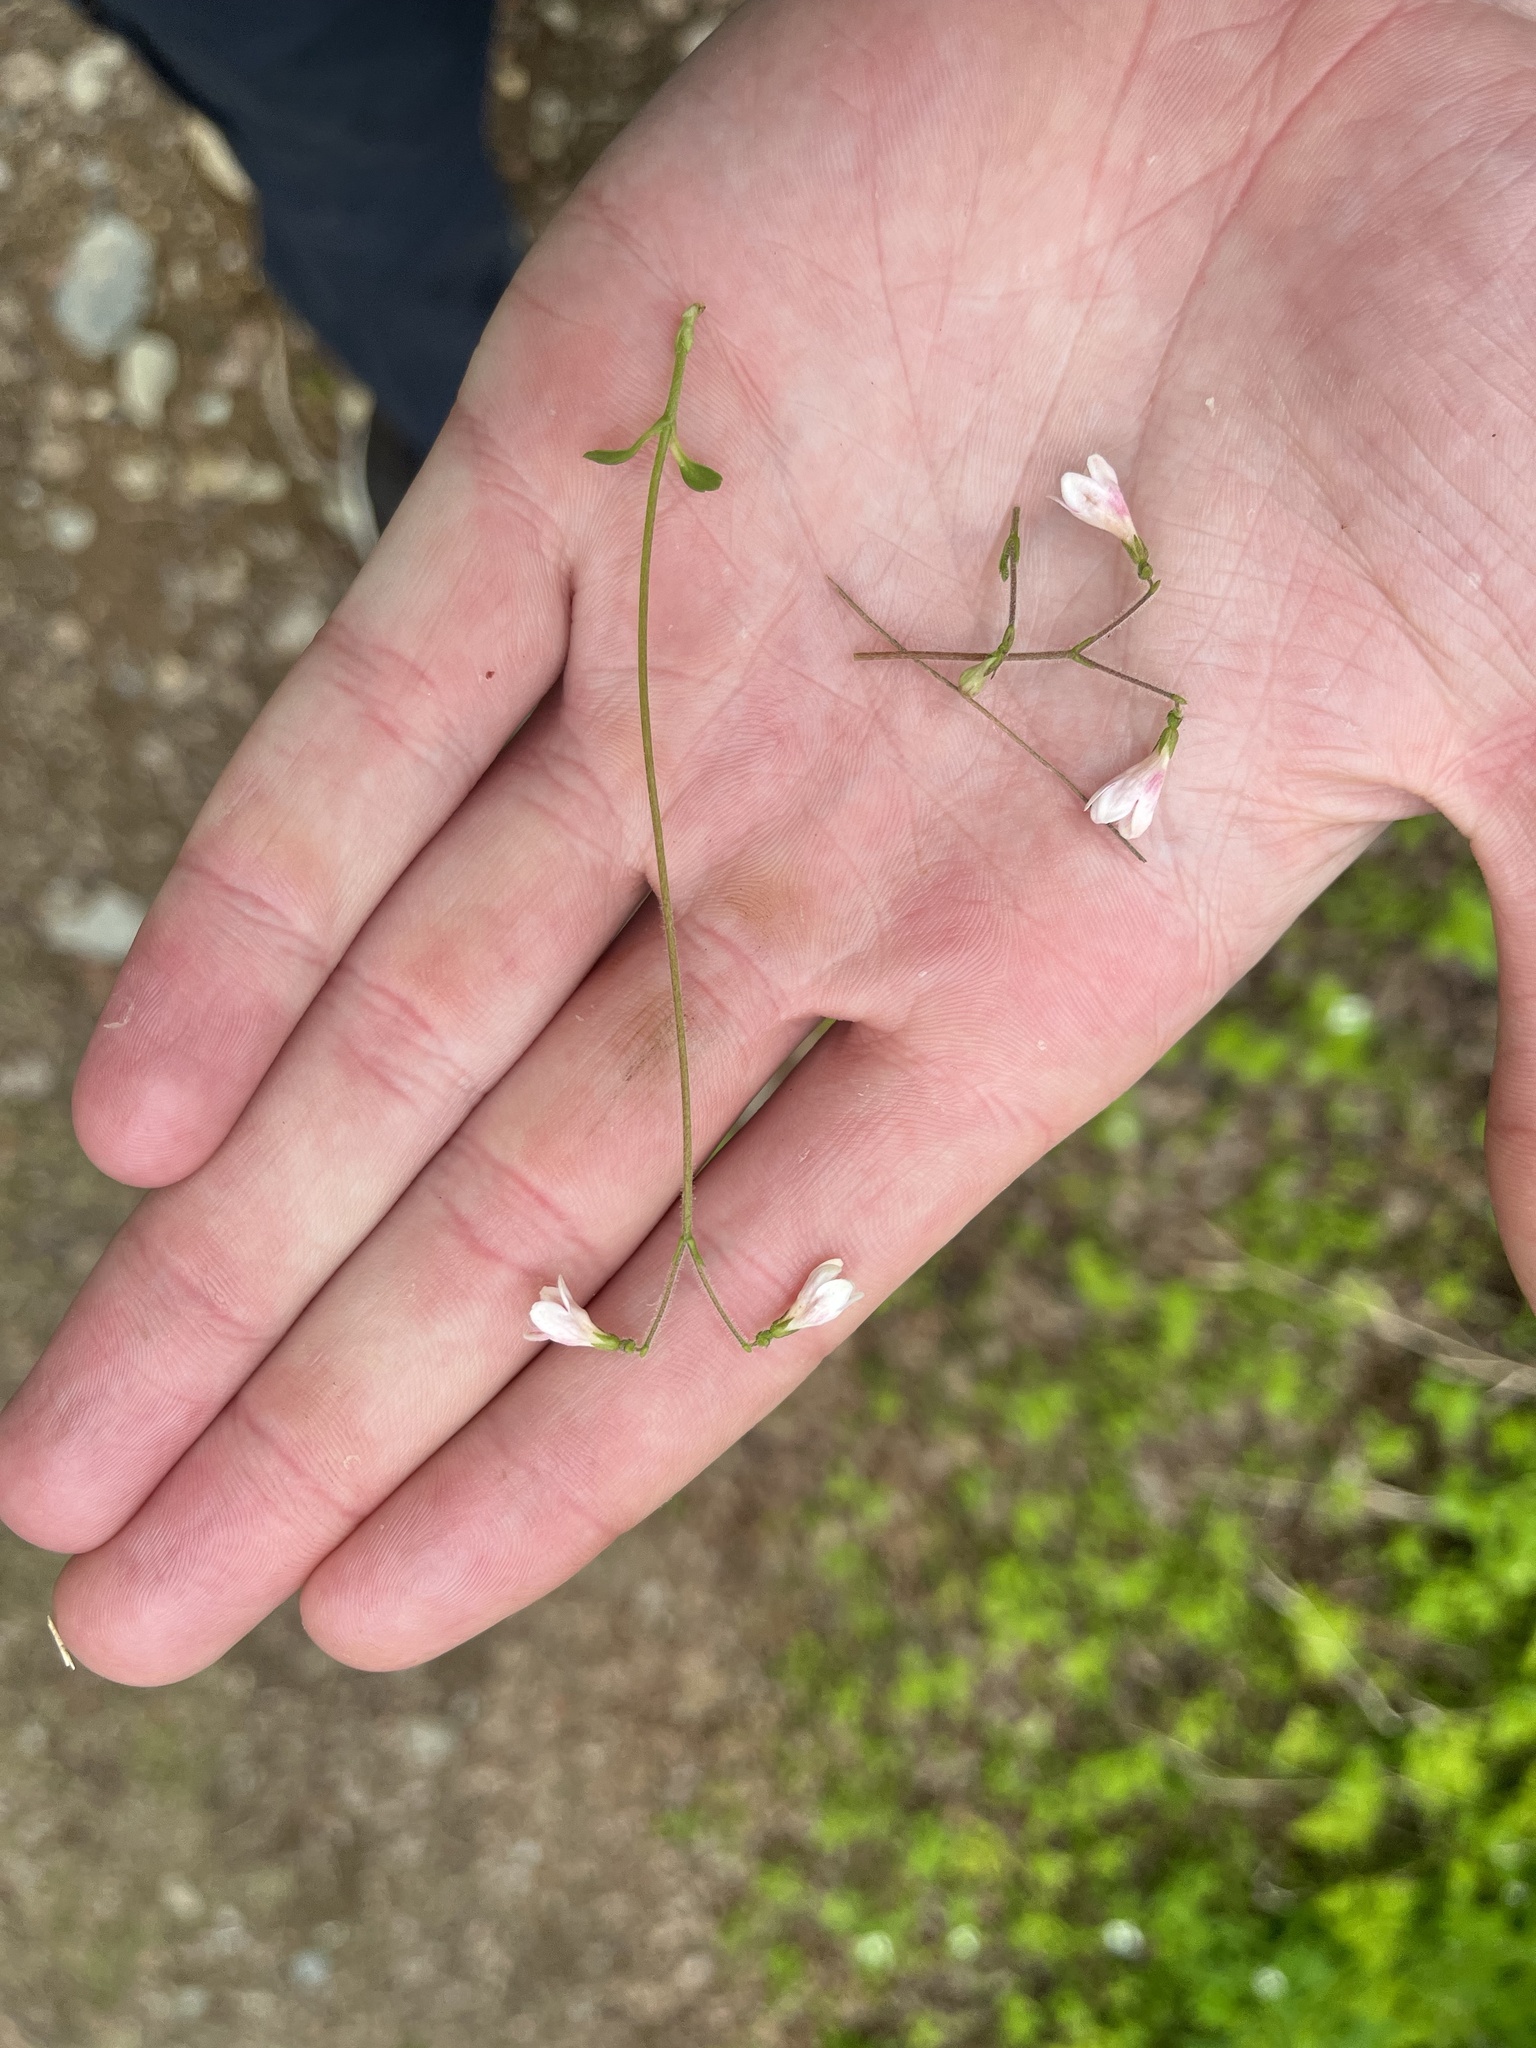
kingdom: Plantae
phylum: Tracheophyta
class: Magnoliopsida
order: Dipsacales
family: Caprifoliaceae
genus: Linnaea
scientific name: Linnaea borealis
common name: Twinflower
